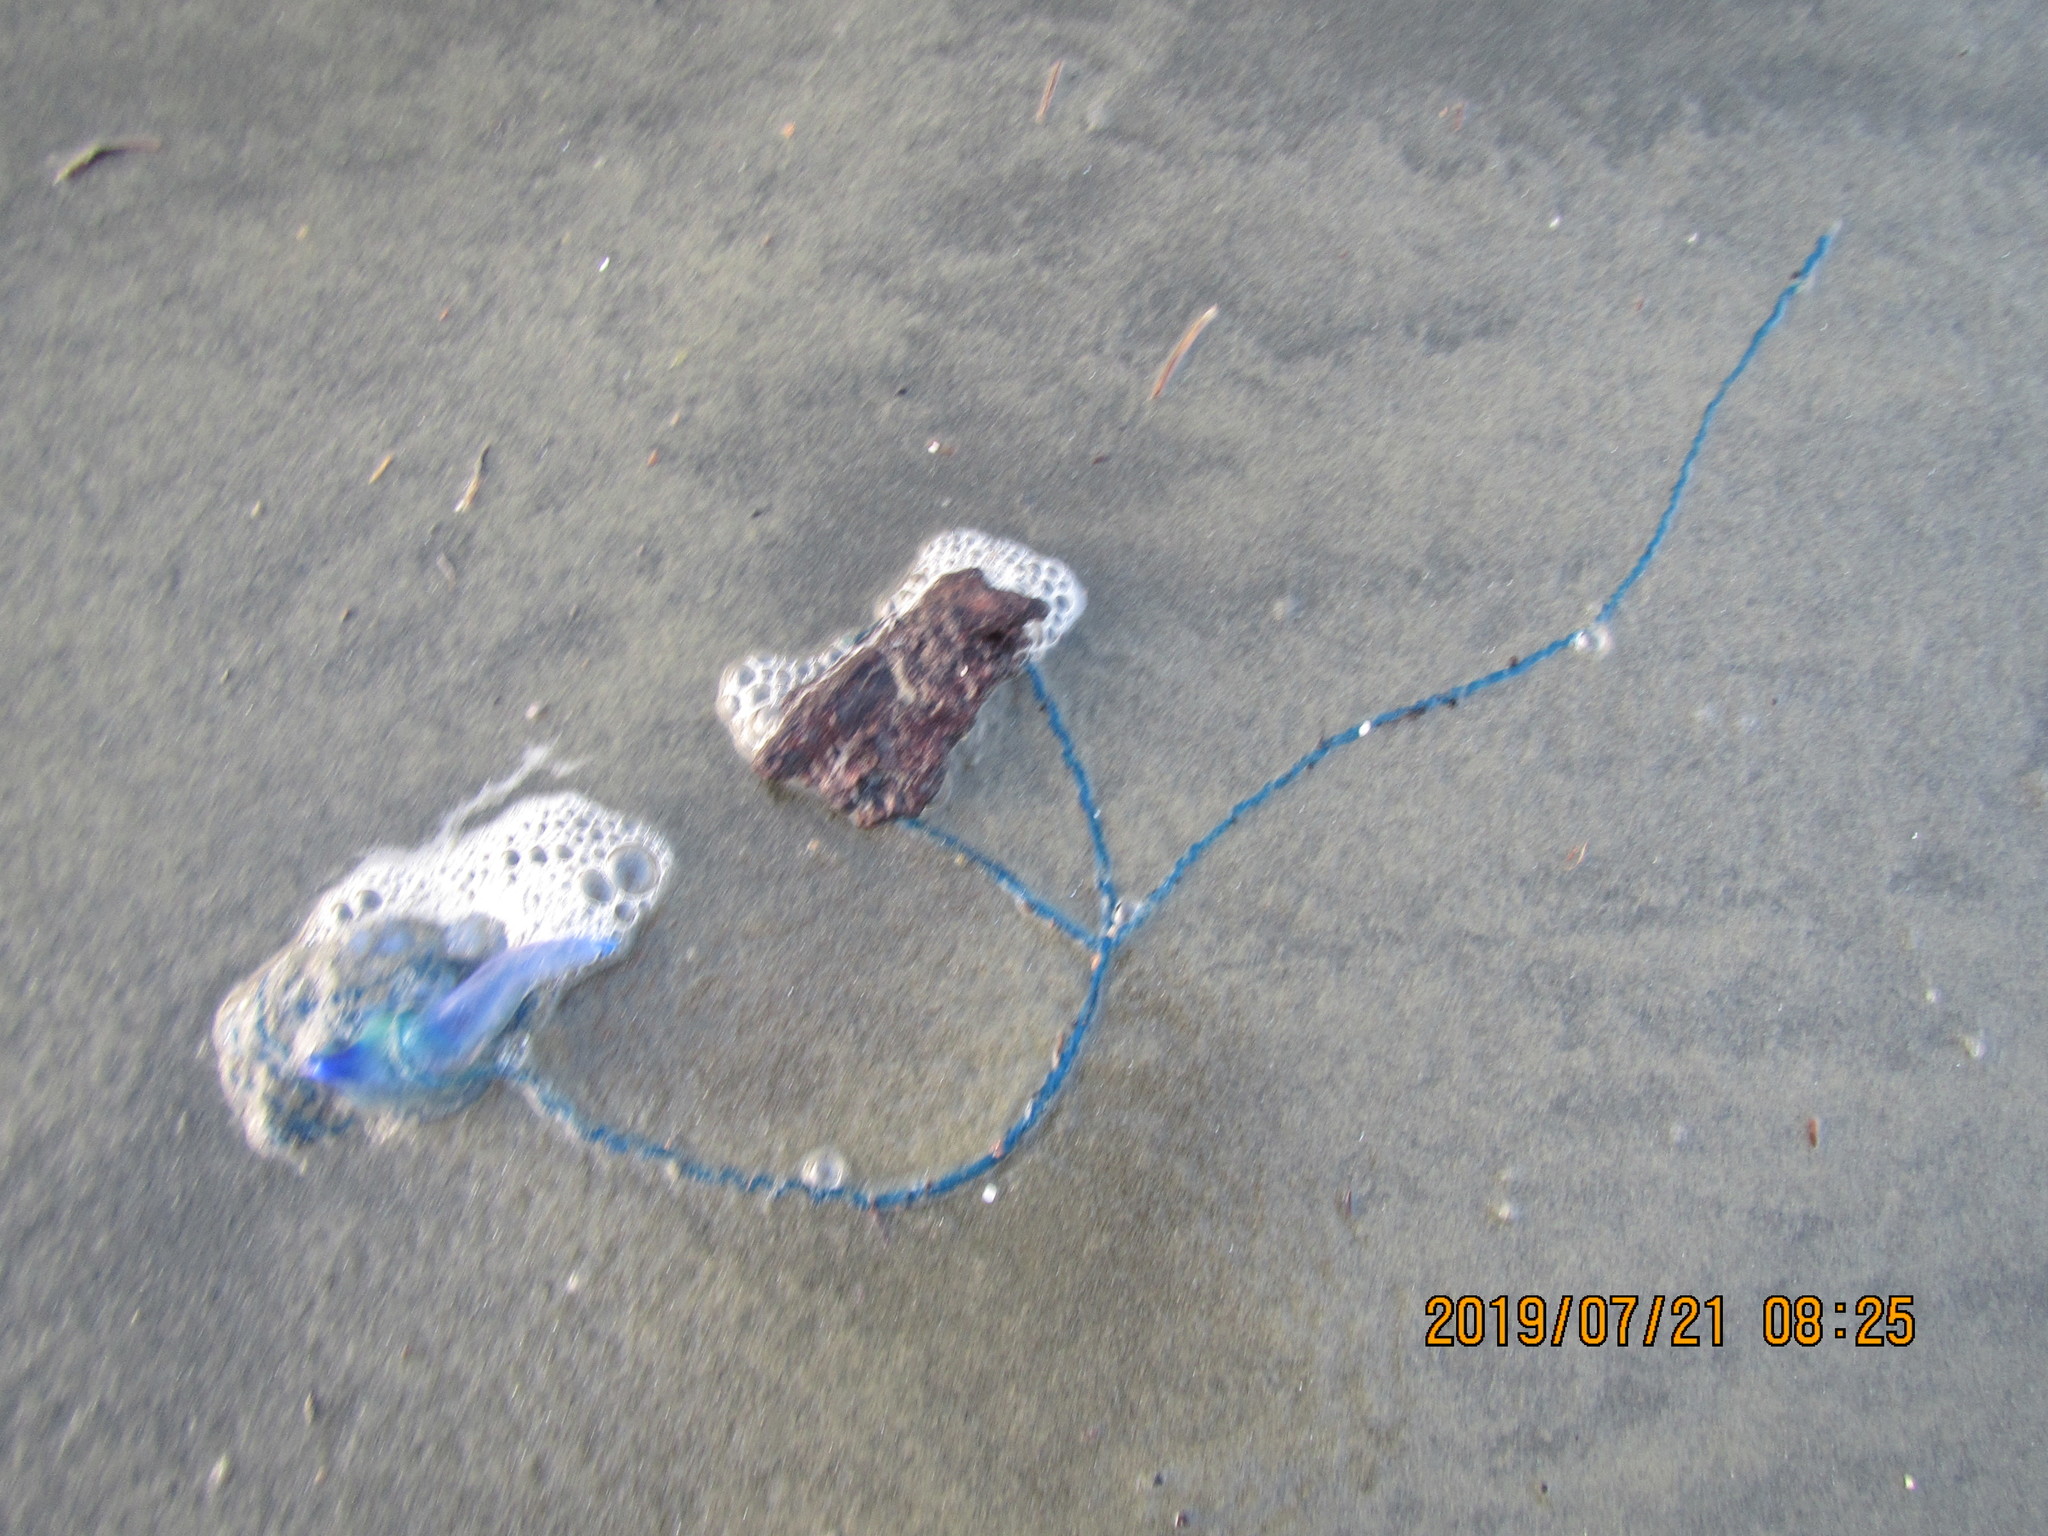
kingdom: Animalia
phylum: Cnidaria
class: Hydrozoa
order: Siphonophorae
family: Physaliidae
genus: Physalia
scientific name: Physalia physalis
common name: Portuguese man-of-war
